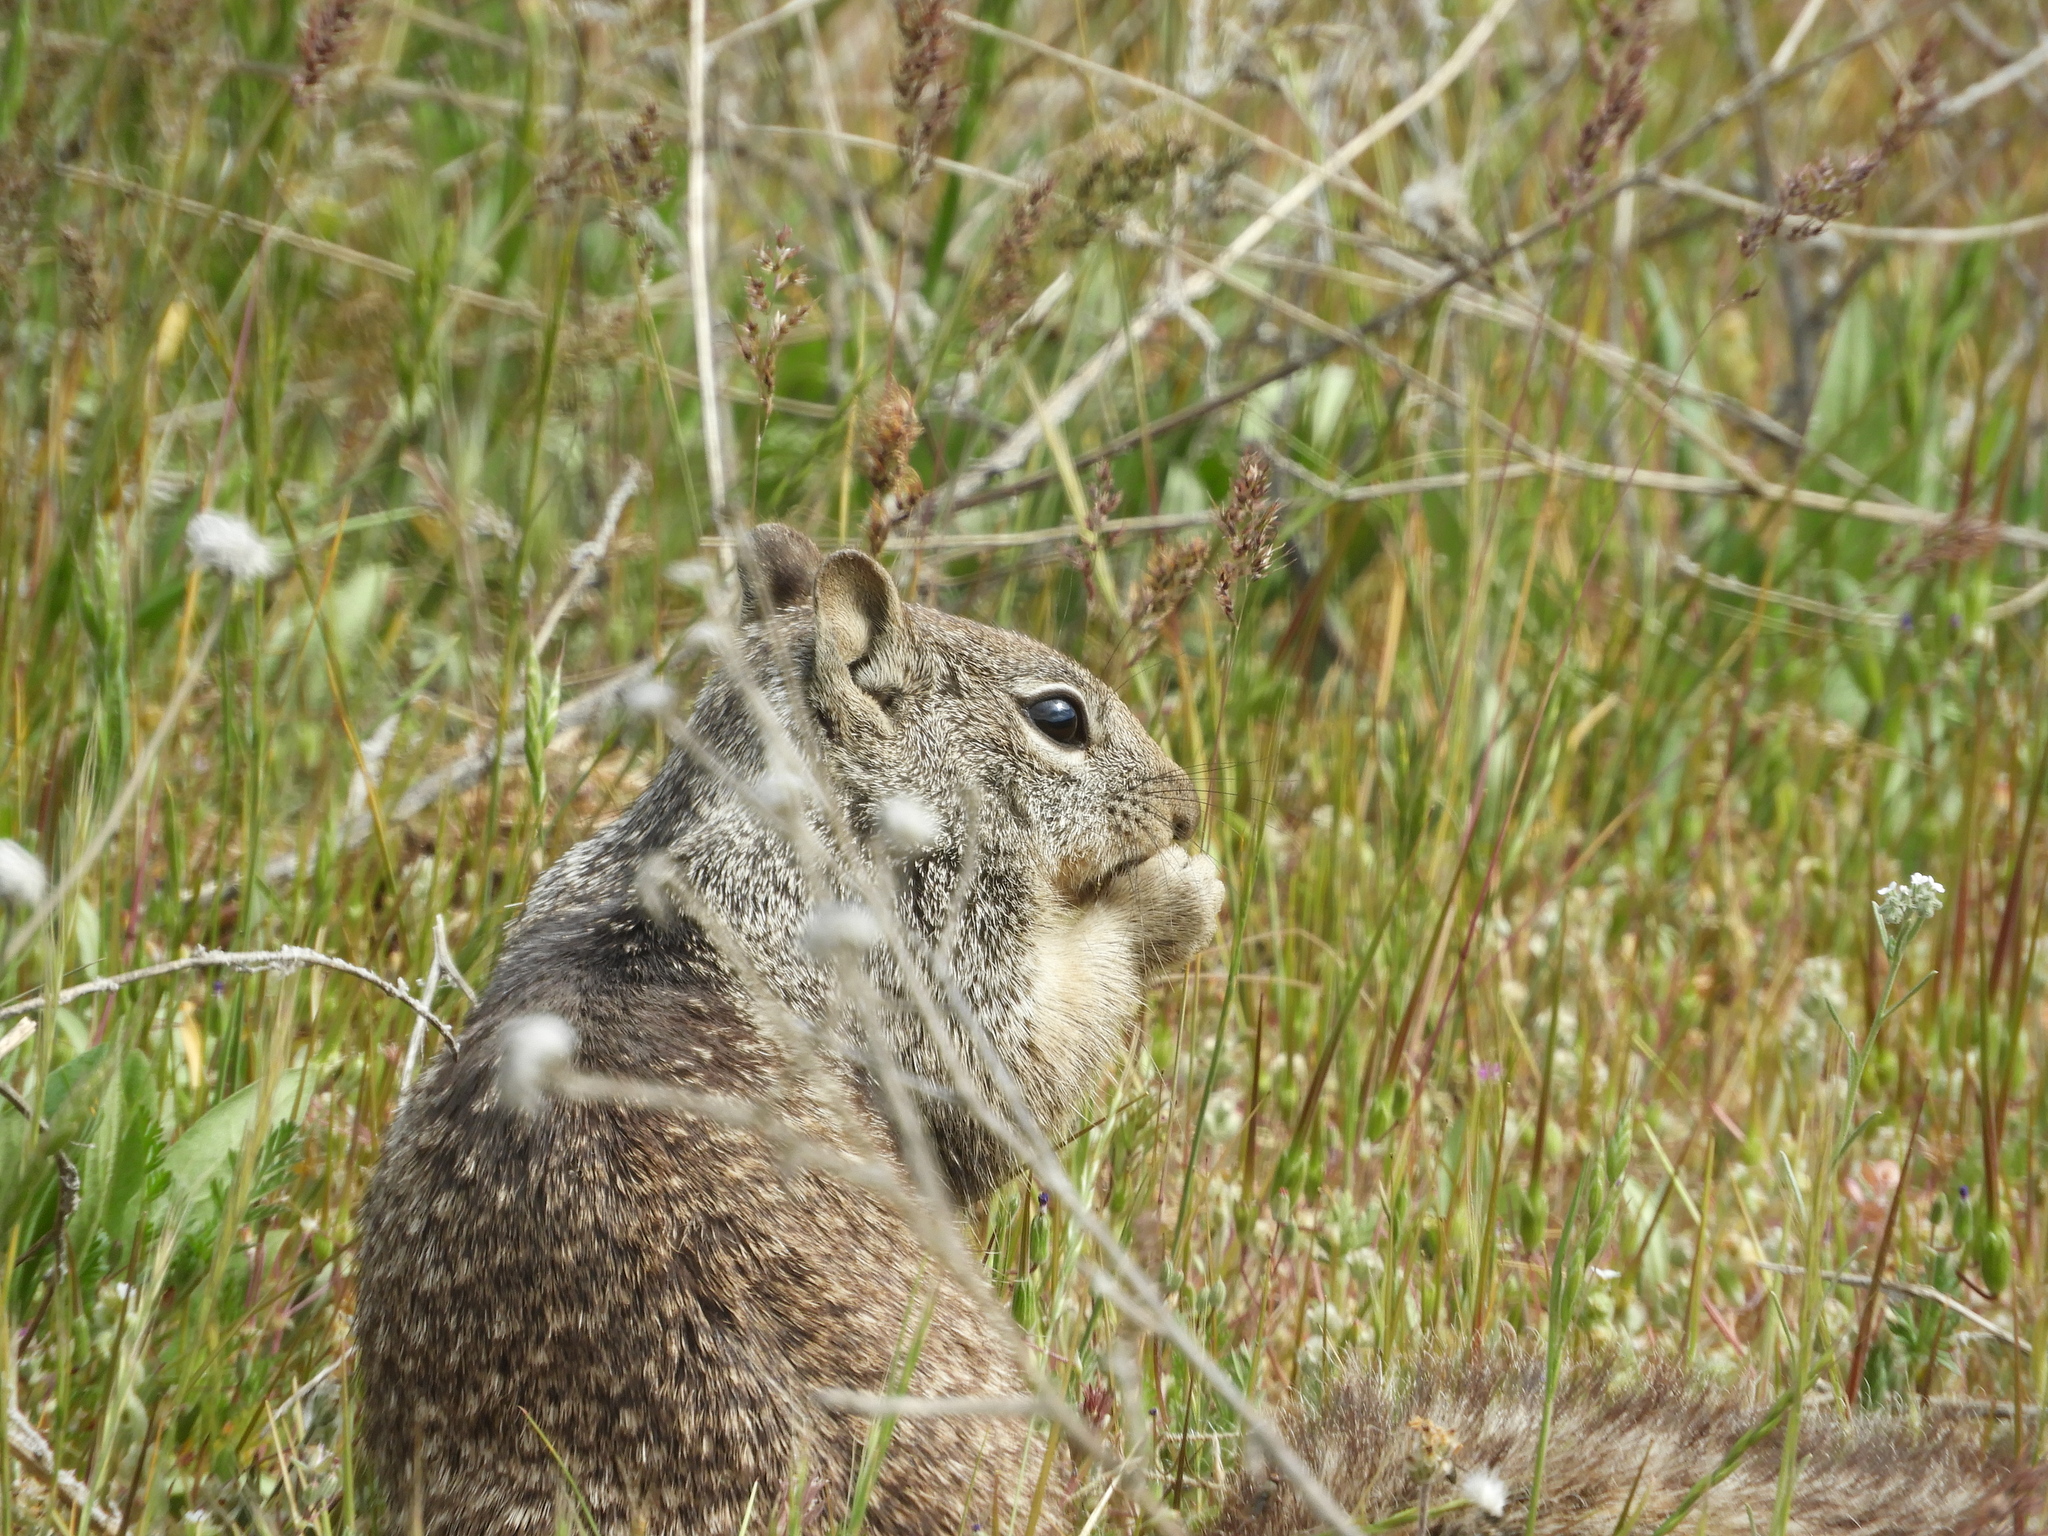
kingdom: Animalia
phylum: Chordata
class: Mammalia
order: Rodentia
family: Sciuridae
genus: Otospermophilus
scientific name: Otospermophilus beecheyi
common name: California ground squirrel
